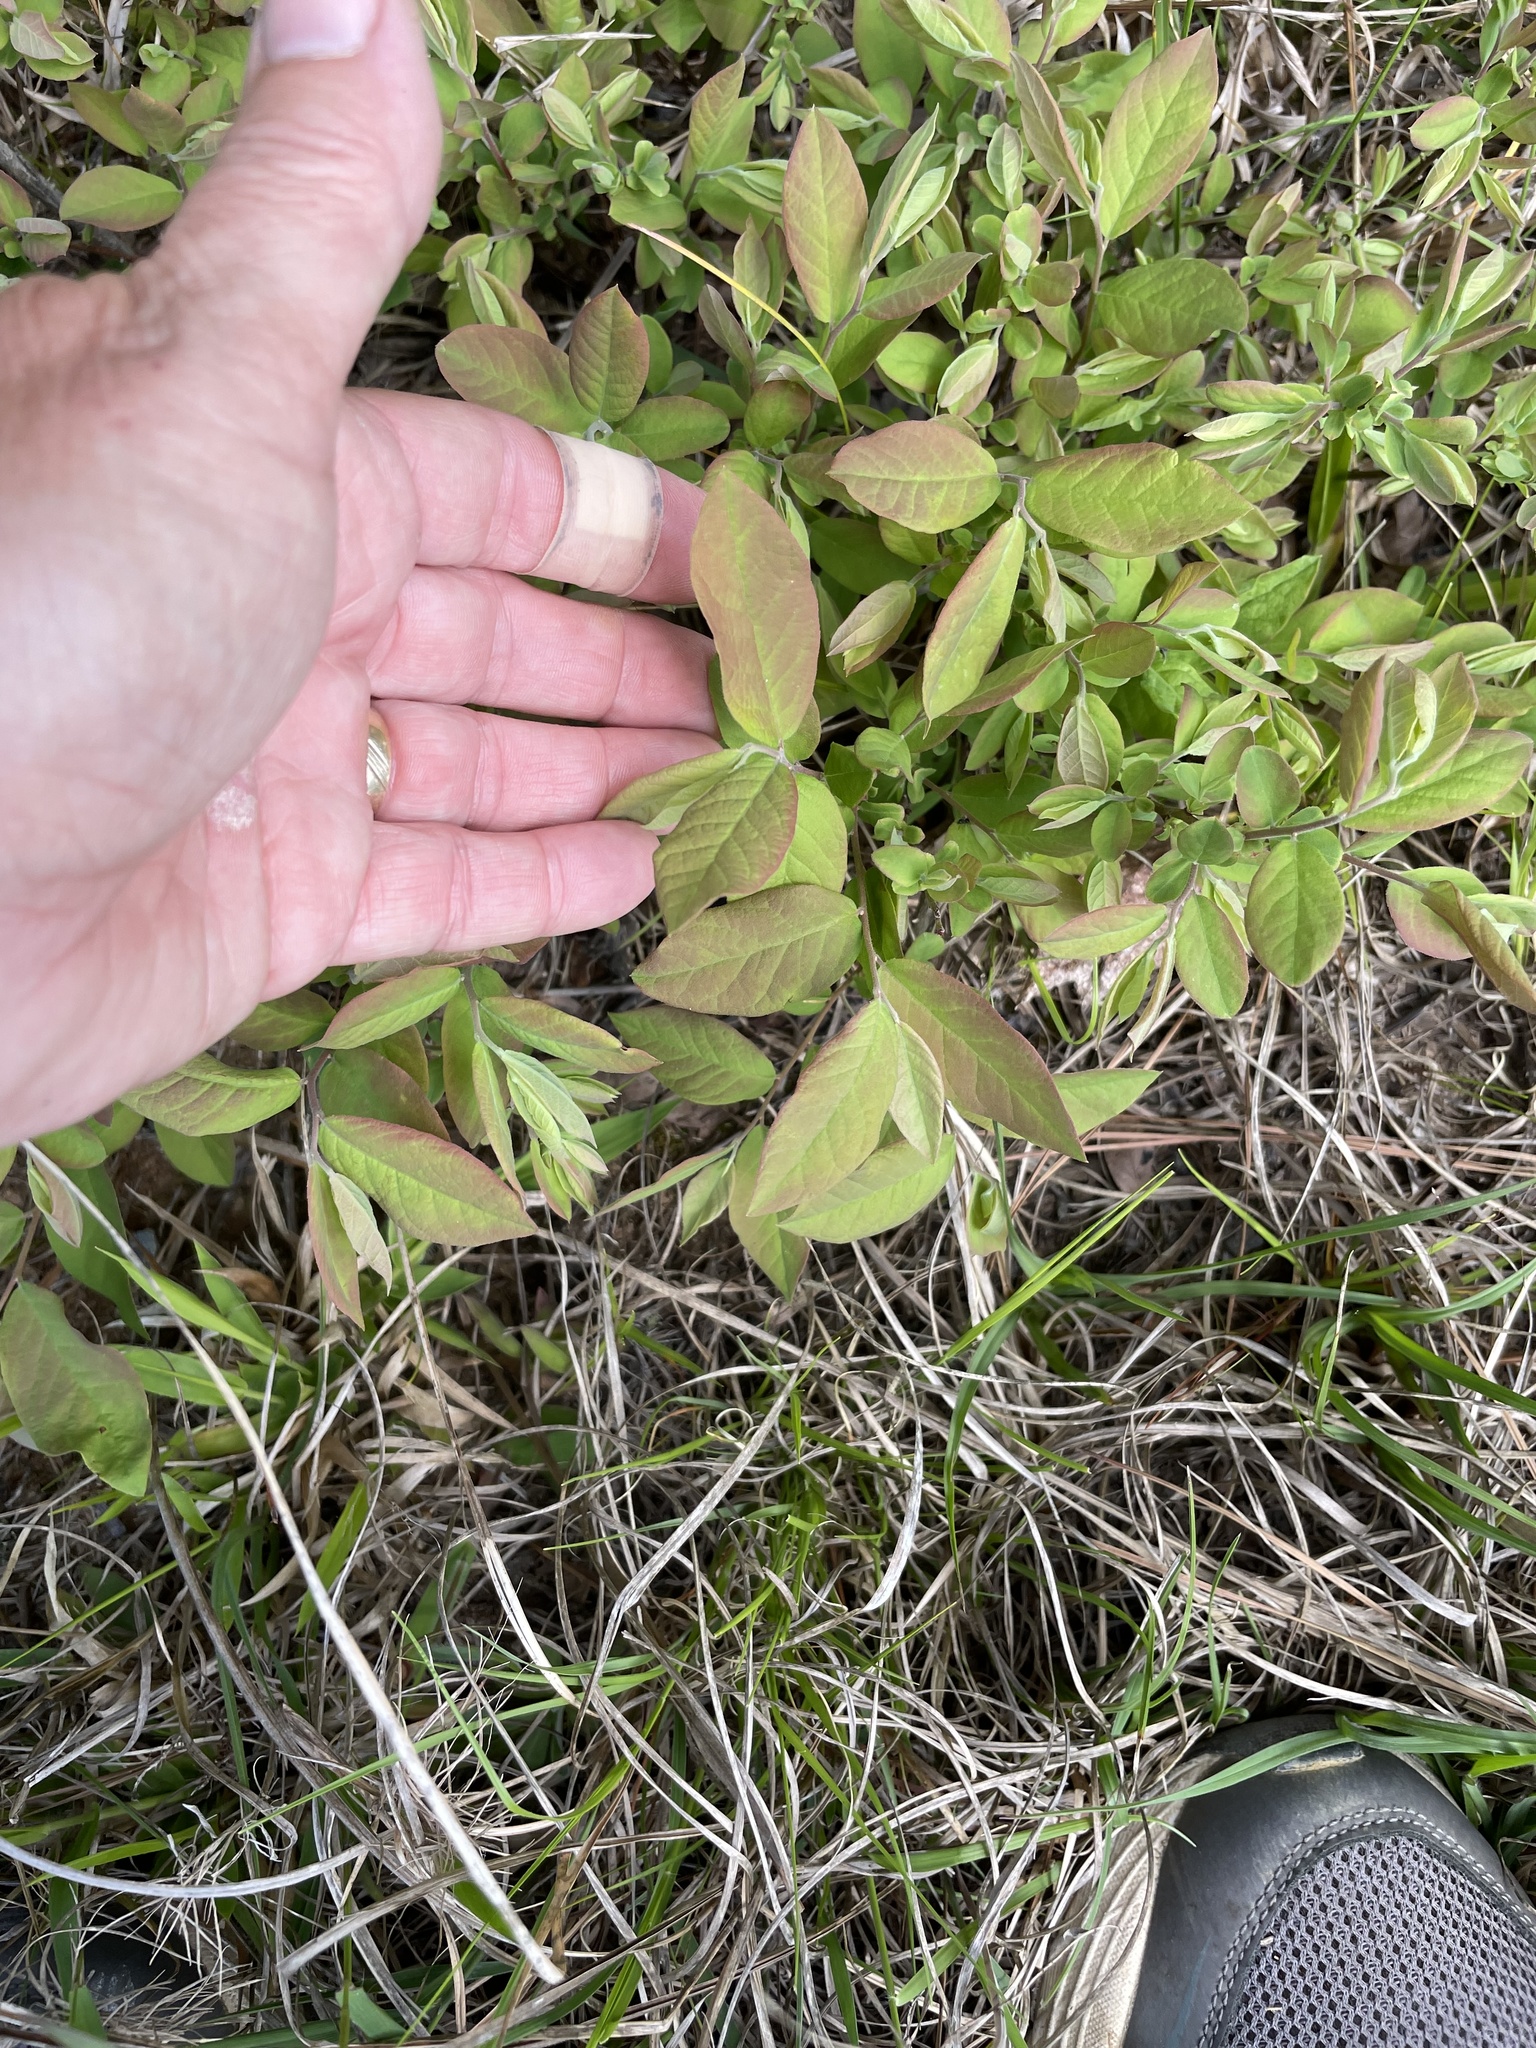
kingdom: Plantae
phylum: Tracheophyta
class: Magnoliopsida
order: Ericales
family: Ericaceae
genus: Vaccinium
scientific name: Vaccinium pallidum
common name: Blue ridge blueberry
